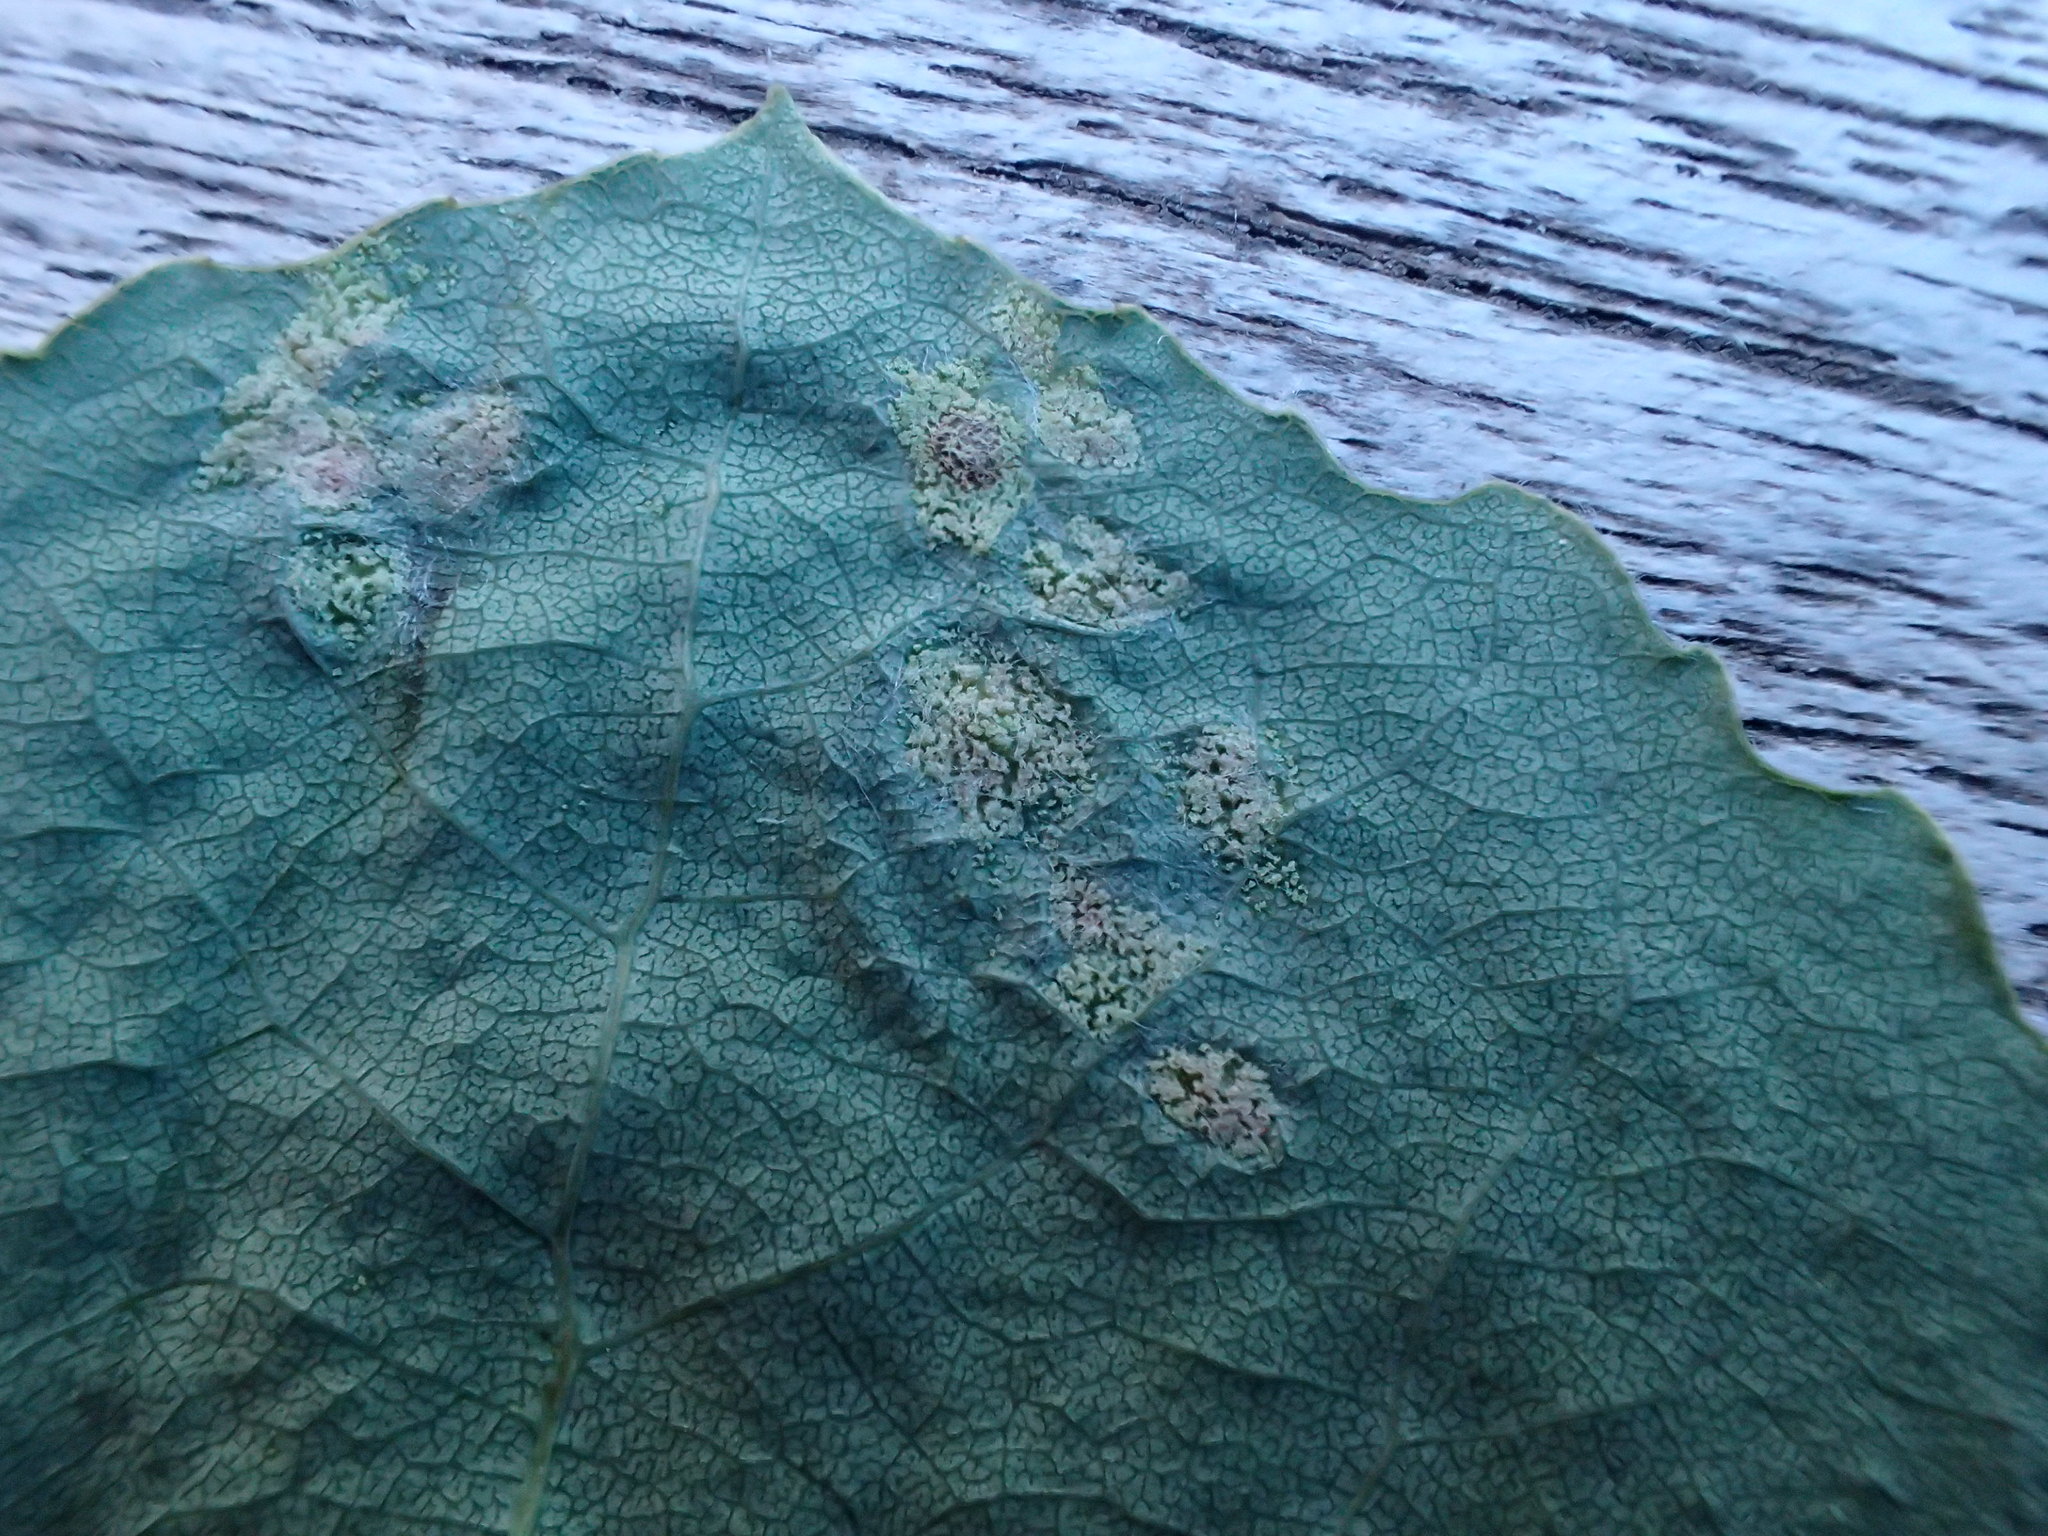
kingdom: Animalia
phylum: Arthropoda
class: Arachnida
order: Trombidiformes
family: Eriophyidae
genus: Phyllocoptes
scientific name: Phyllocoptes populi
